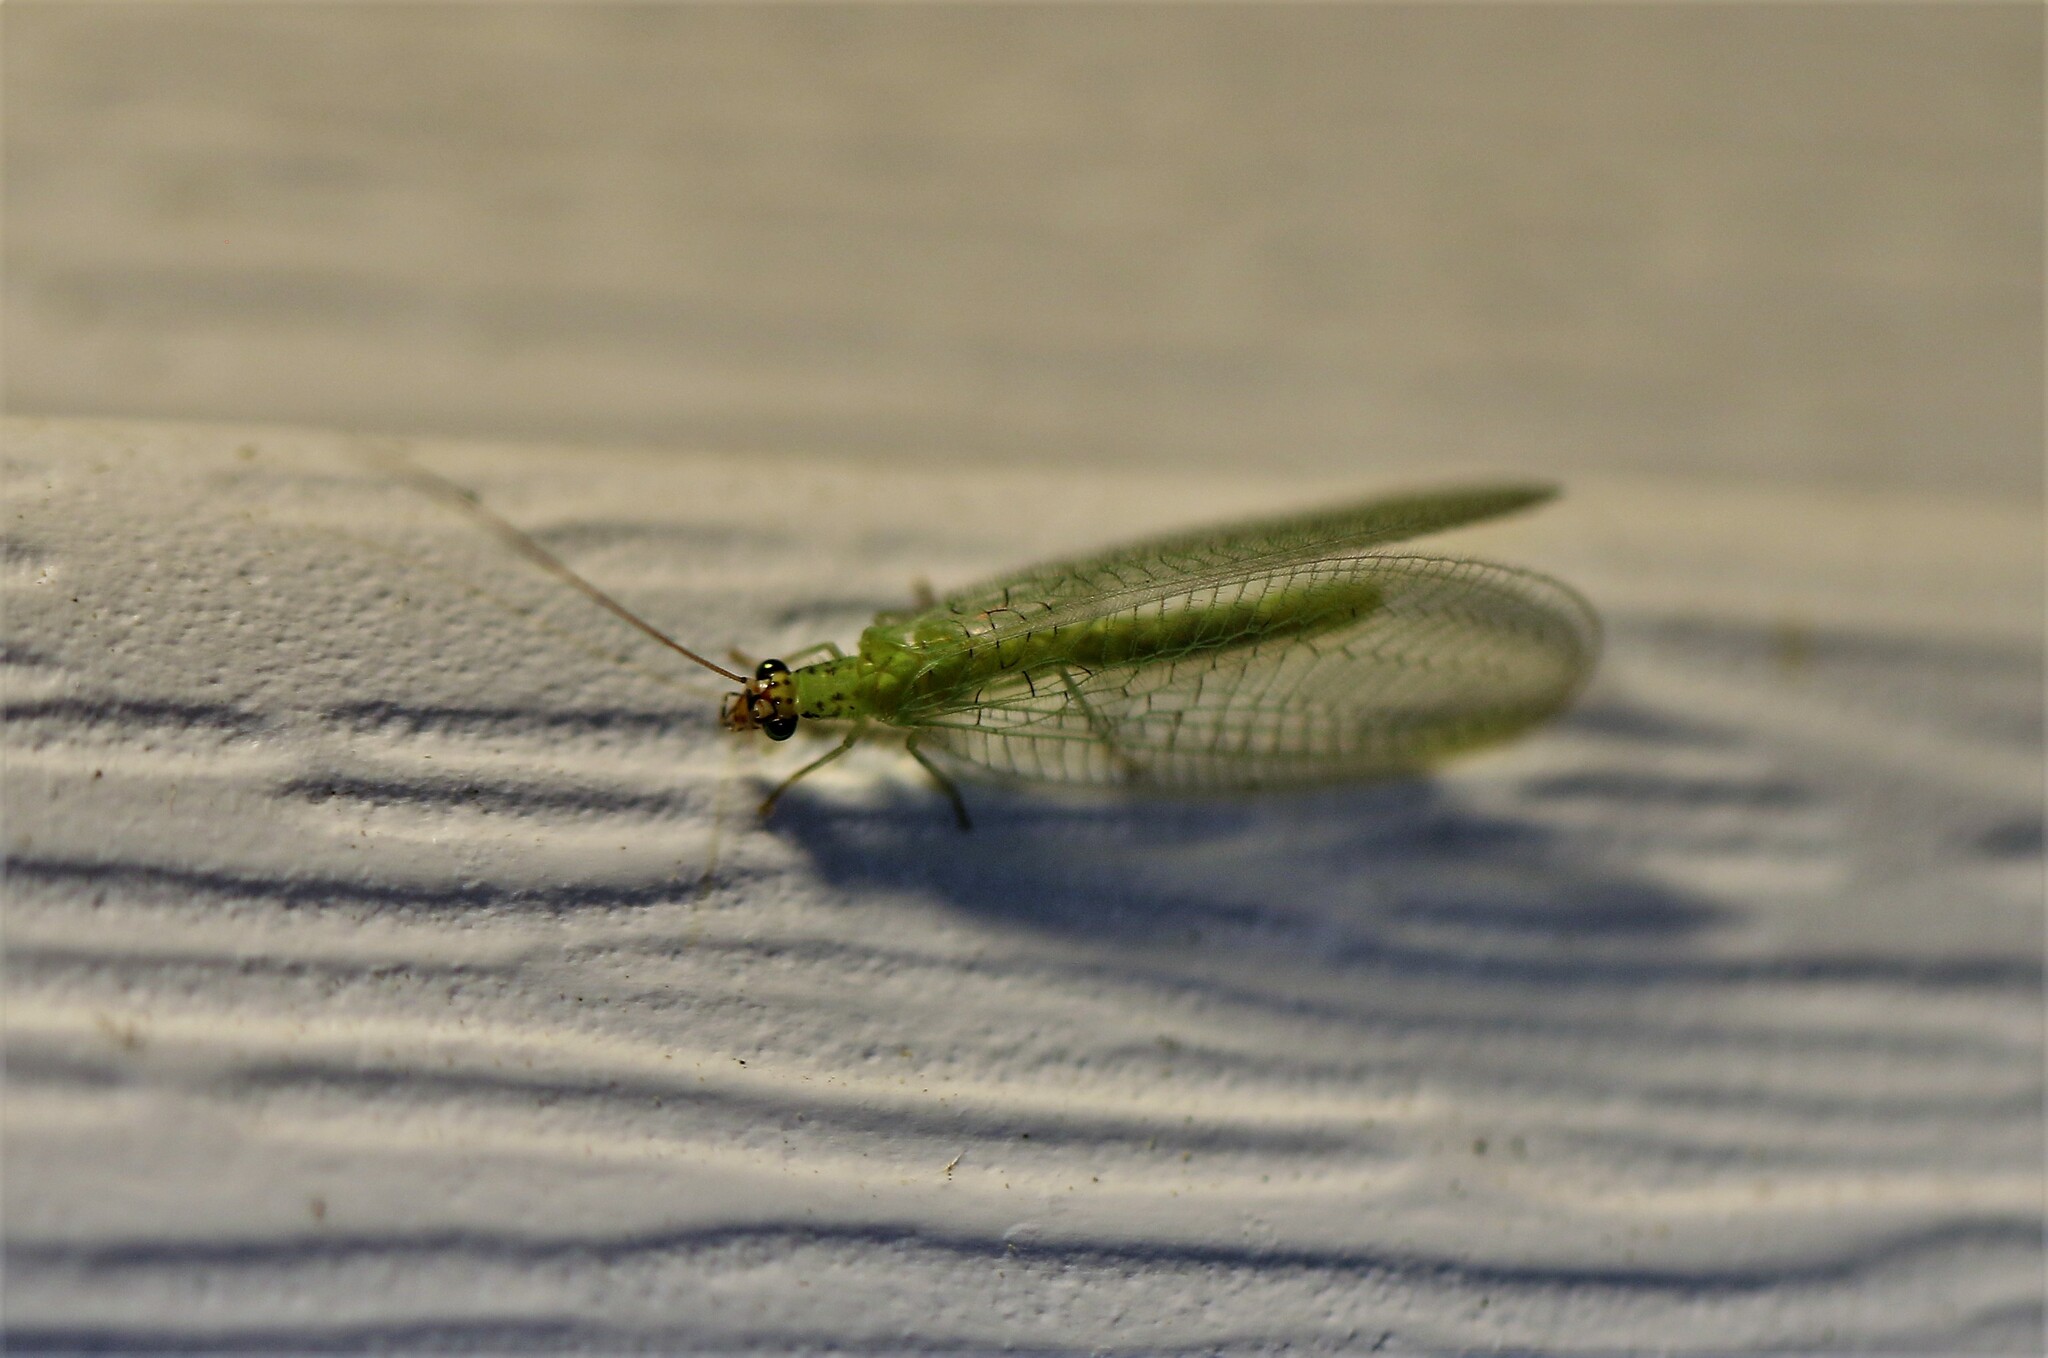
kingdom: Animalia
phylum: Arthropoda
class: Insecta
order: Neuroptera
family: Chrysopidae
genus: Chrysopa
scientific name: Chrysopa oculata
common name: Golden-eyed lacewing
